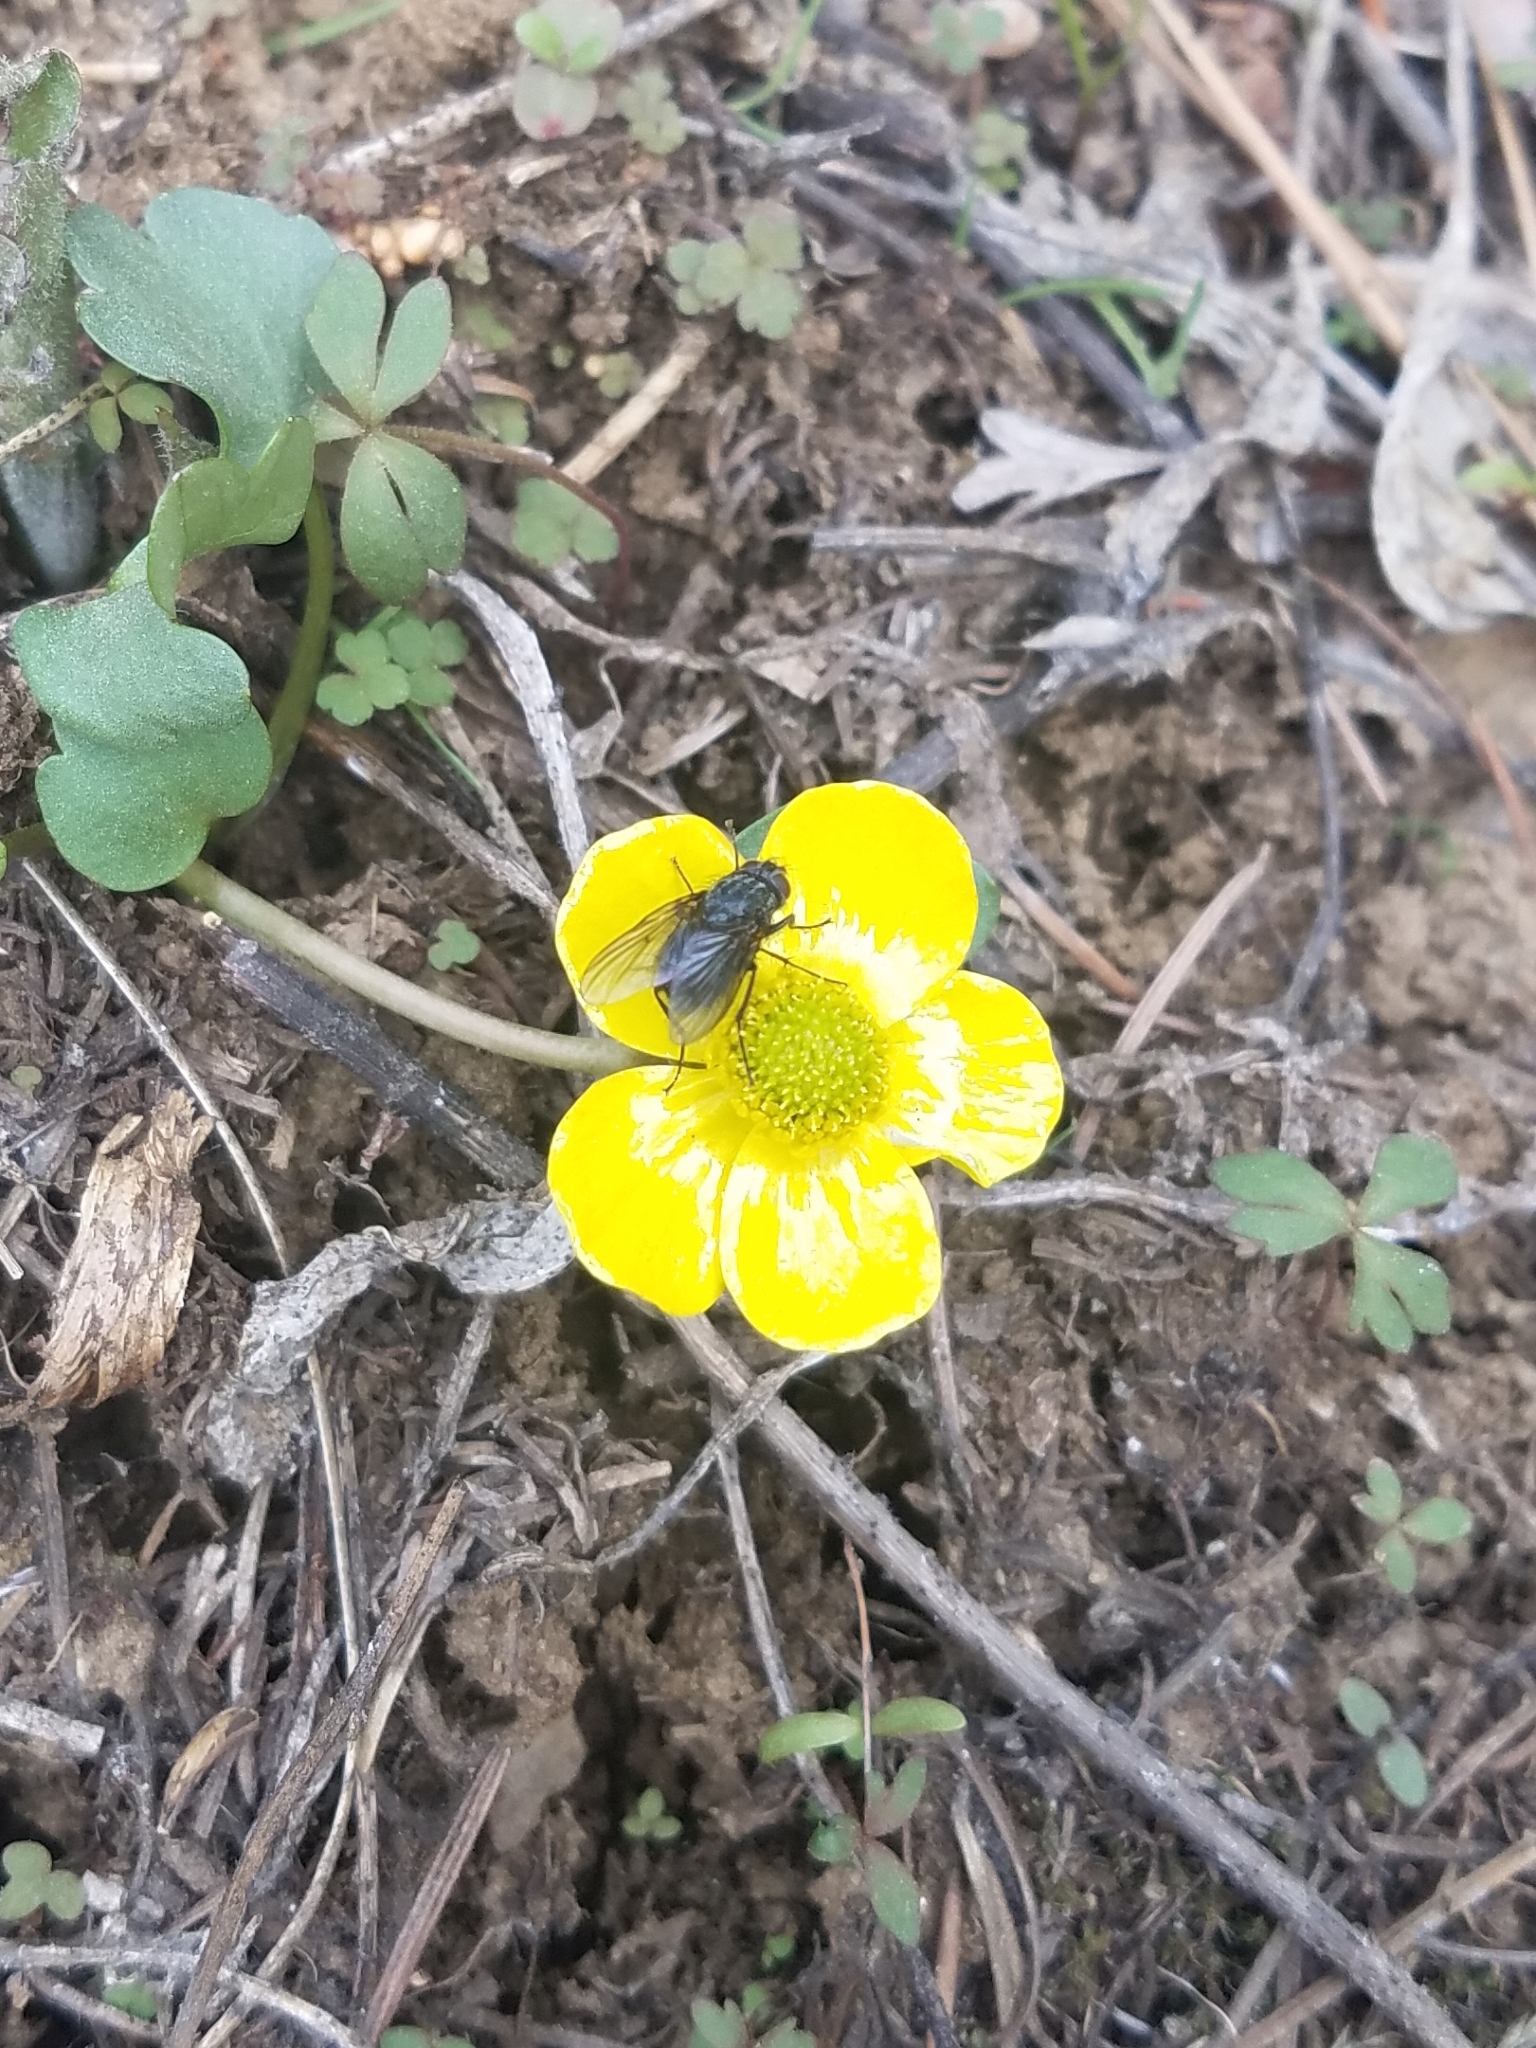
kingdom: Plantae
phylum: Tracheophyta
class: Magnoliopsida
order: Ranunculales
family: Ranunculaceae
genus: Ranunculus
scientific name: Ranunculus glaberrimus
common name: Sagebrush buttercup
